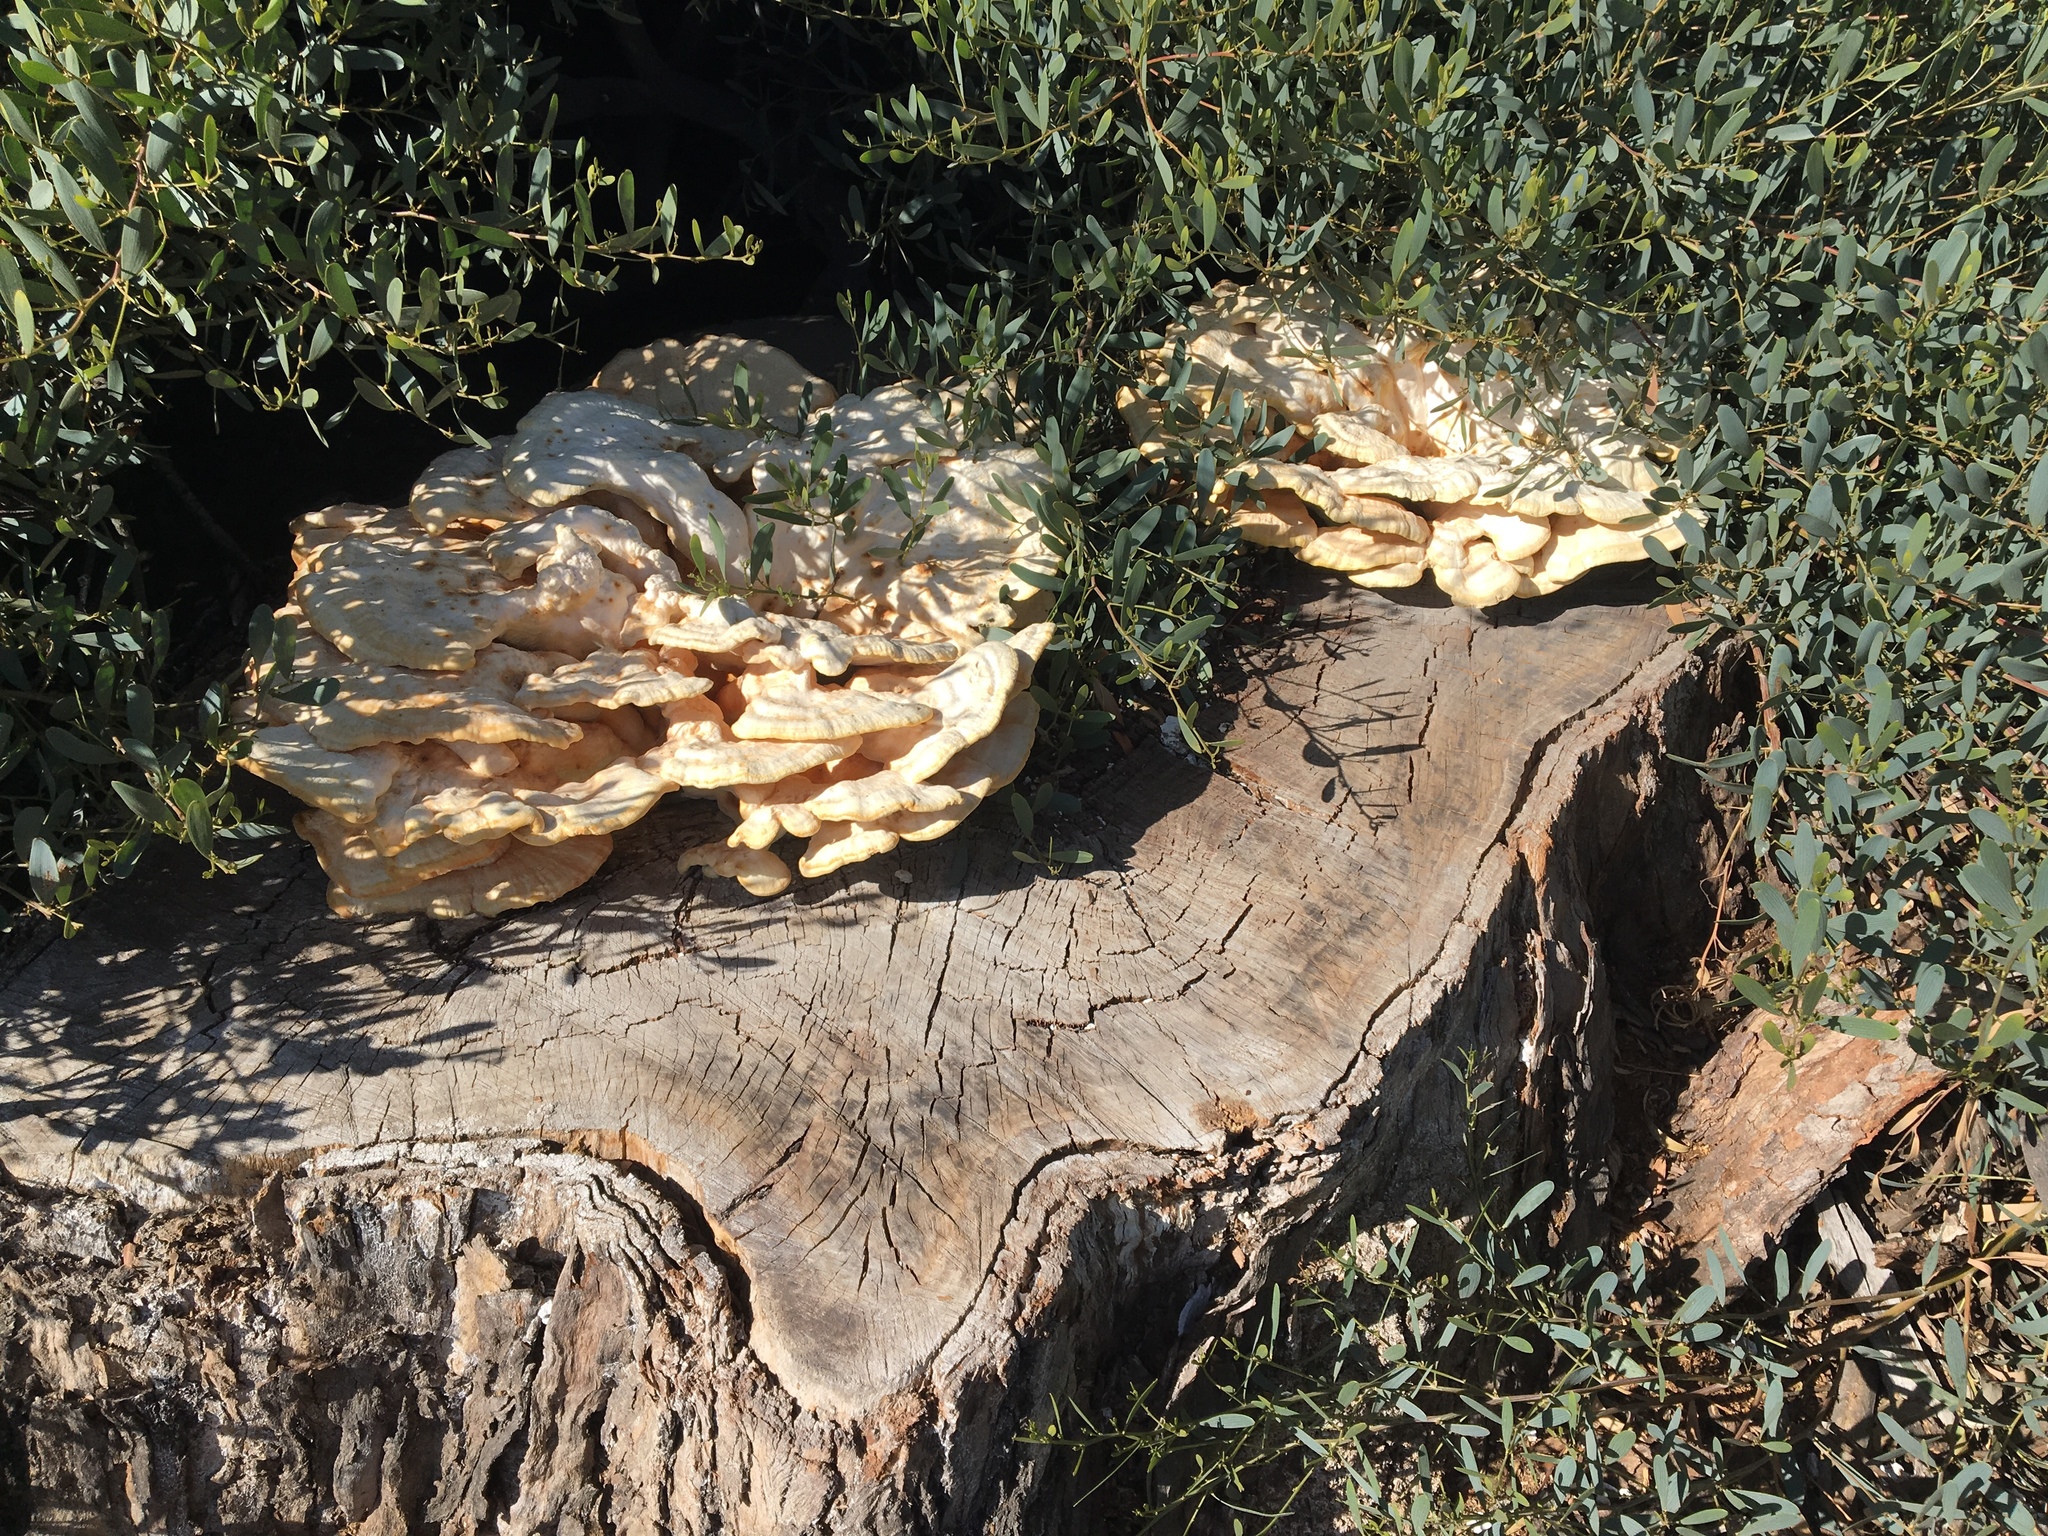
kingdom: Fungi
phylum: Basidiomycota
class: Agaricomycetes
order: Polyporales
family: Laetiporaceae
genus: Laetiporus
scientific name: Laetiporus gilbertsonii
